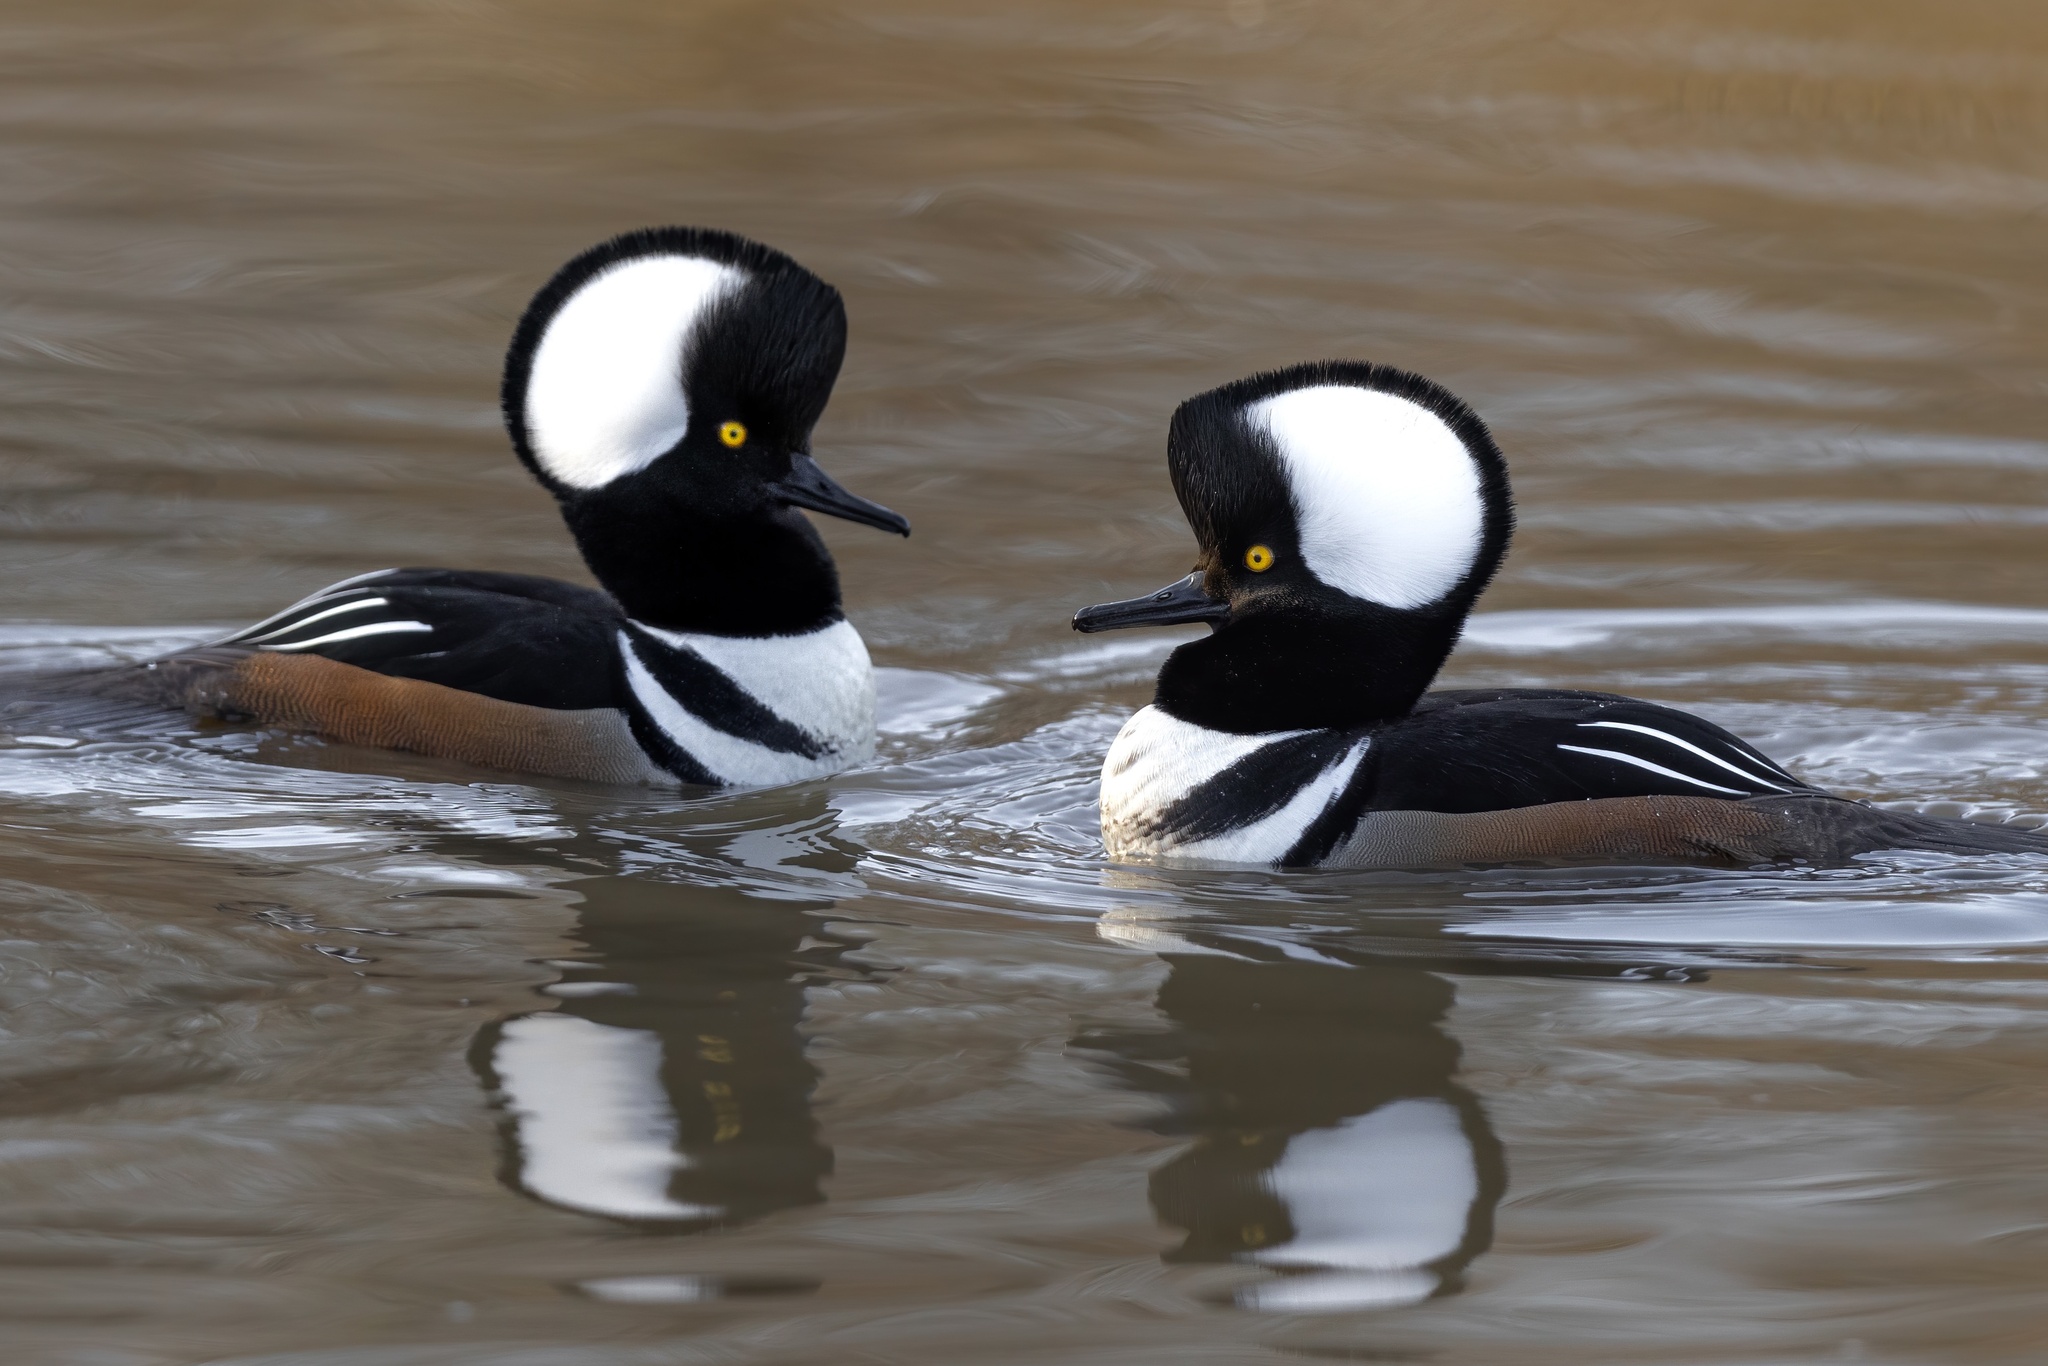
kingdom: Animalia
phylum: Chordata
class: Aves
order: Anseriformes
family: Anatidae
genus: Lophodytes
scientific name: Lophodytes cucullatus
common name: Hooded merganser
